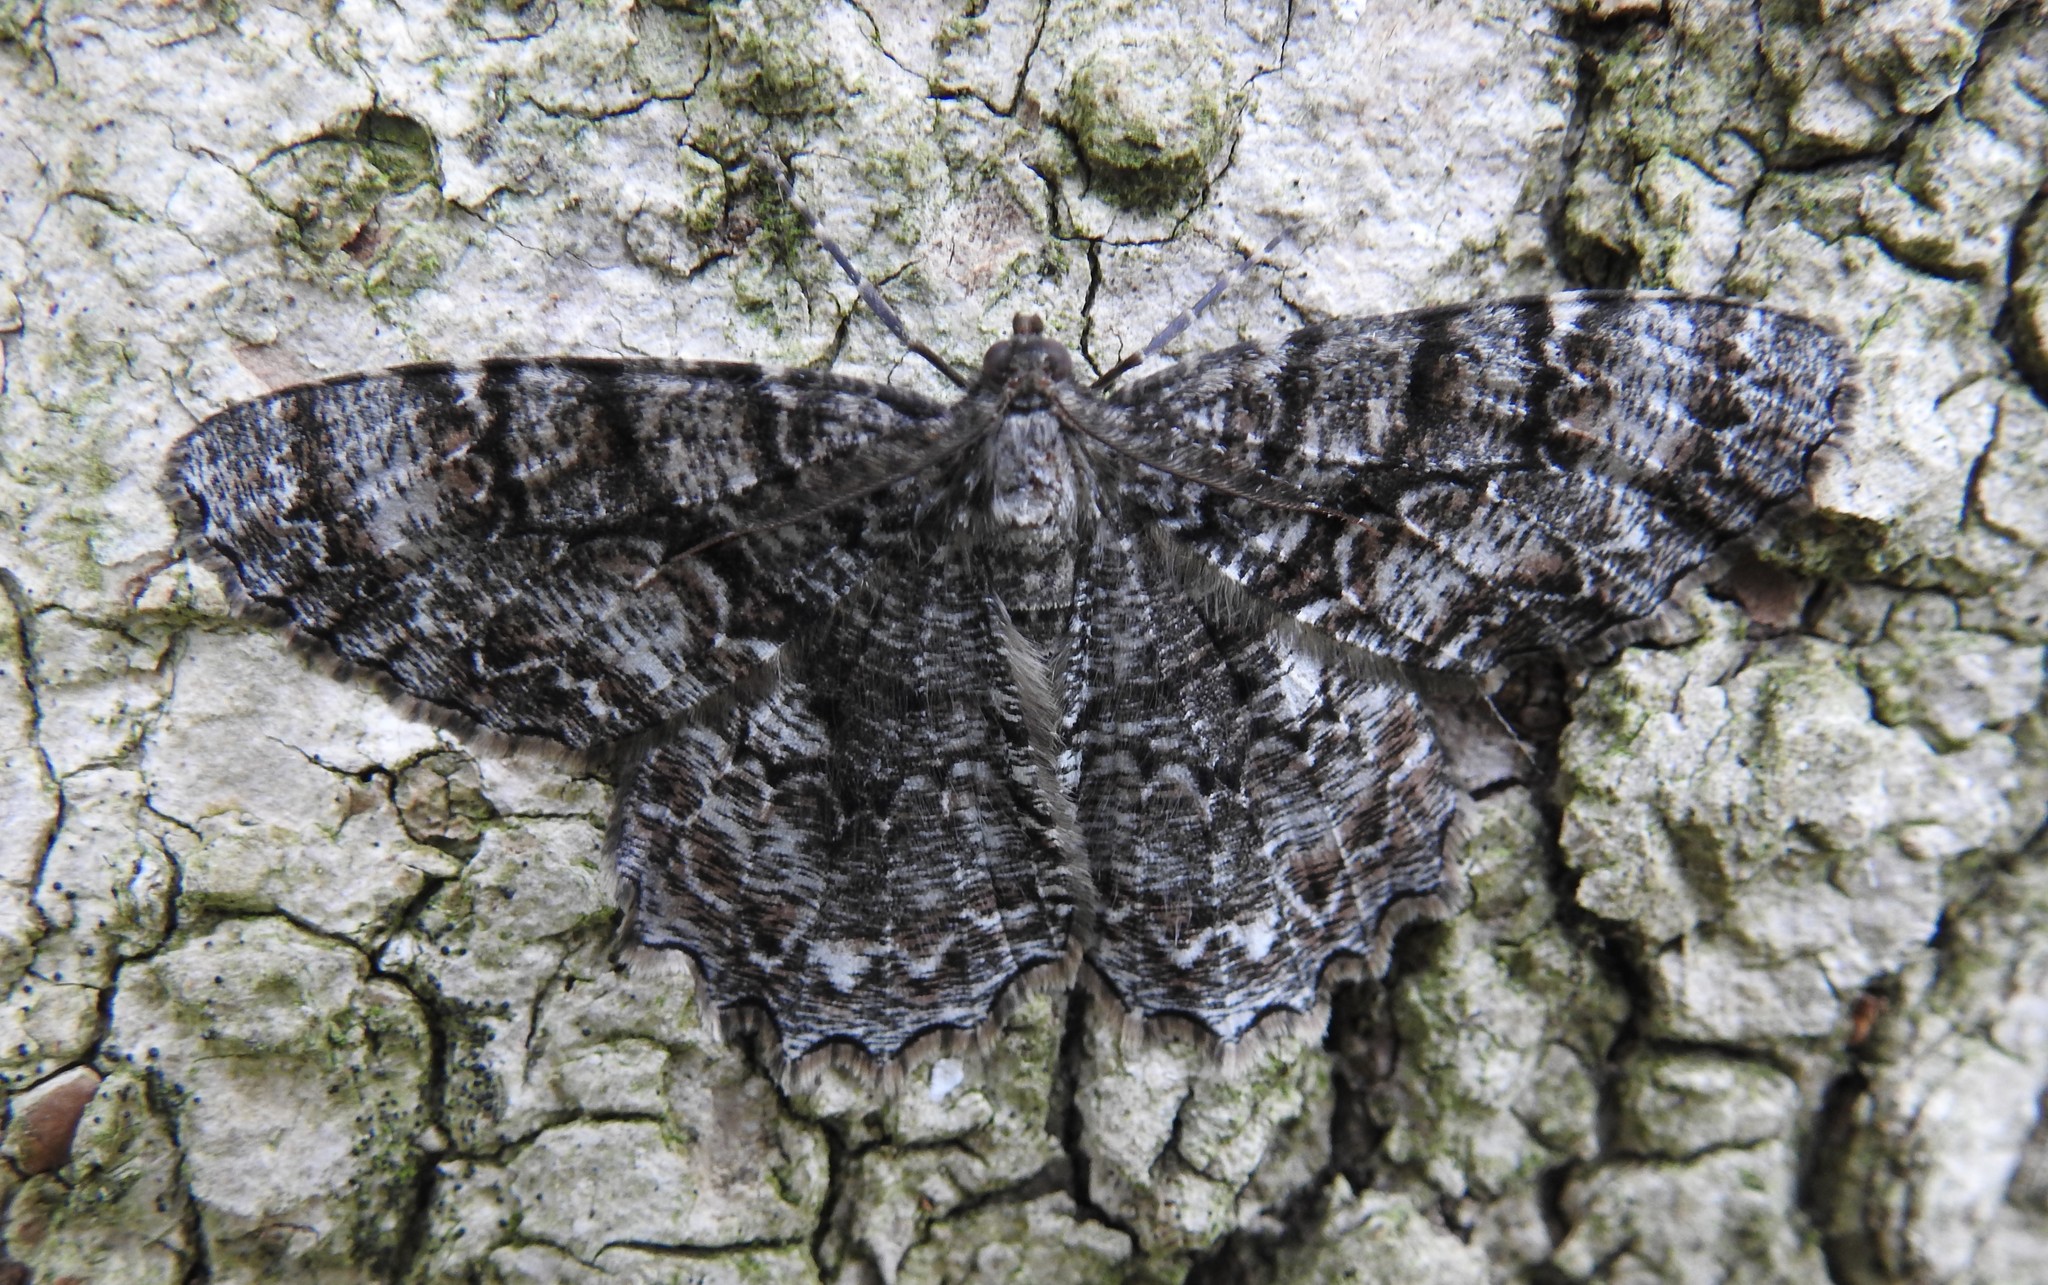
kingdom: Animalia
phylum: Arthropoda
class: Insecta
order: Lepidoptera
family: Geometridae
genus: Epimecis
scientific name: Epimecis hortaria
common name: Tulip-tree beauty
